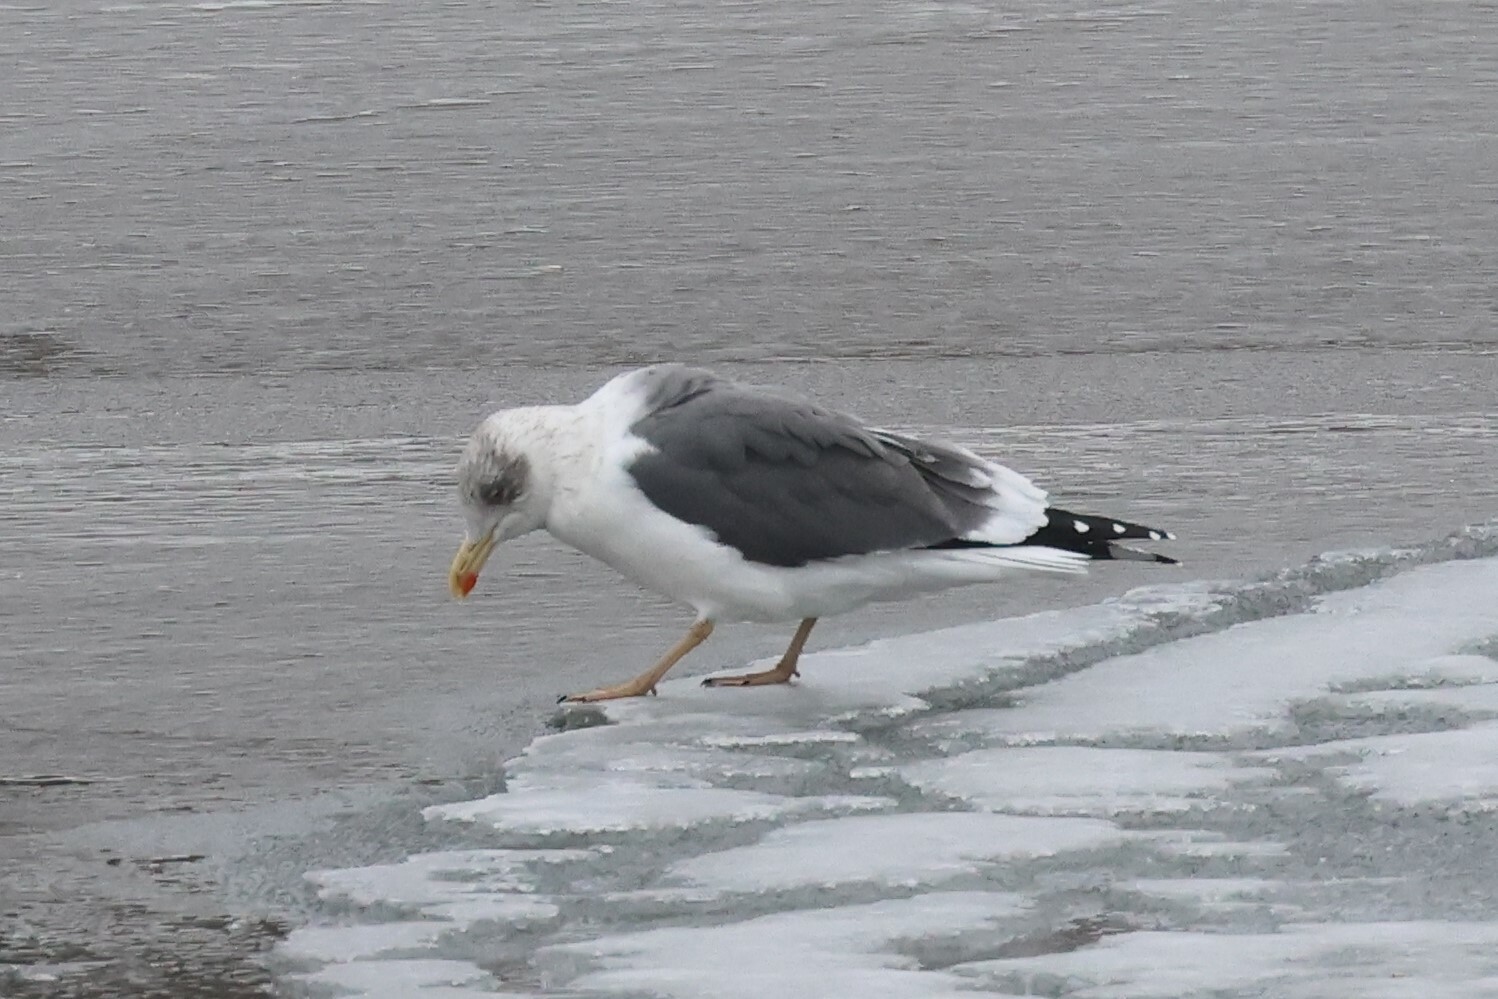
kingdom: Animalia
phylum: Chordata
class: Aves
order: Charadriiformes
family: Laridae
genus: Larus
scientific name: Larus fuscus
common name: Lesser black-backed gull
